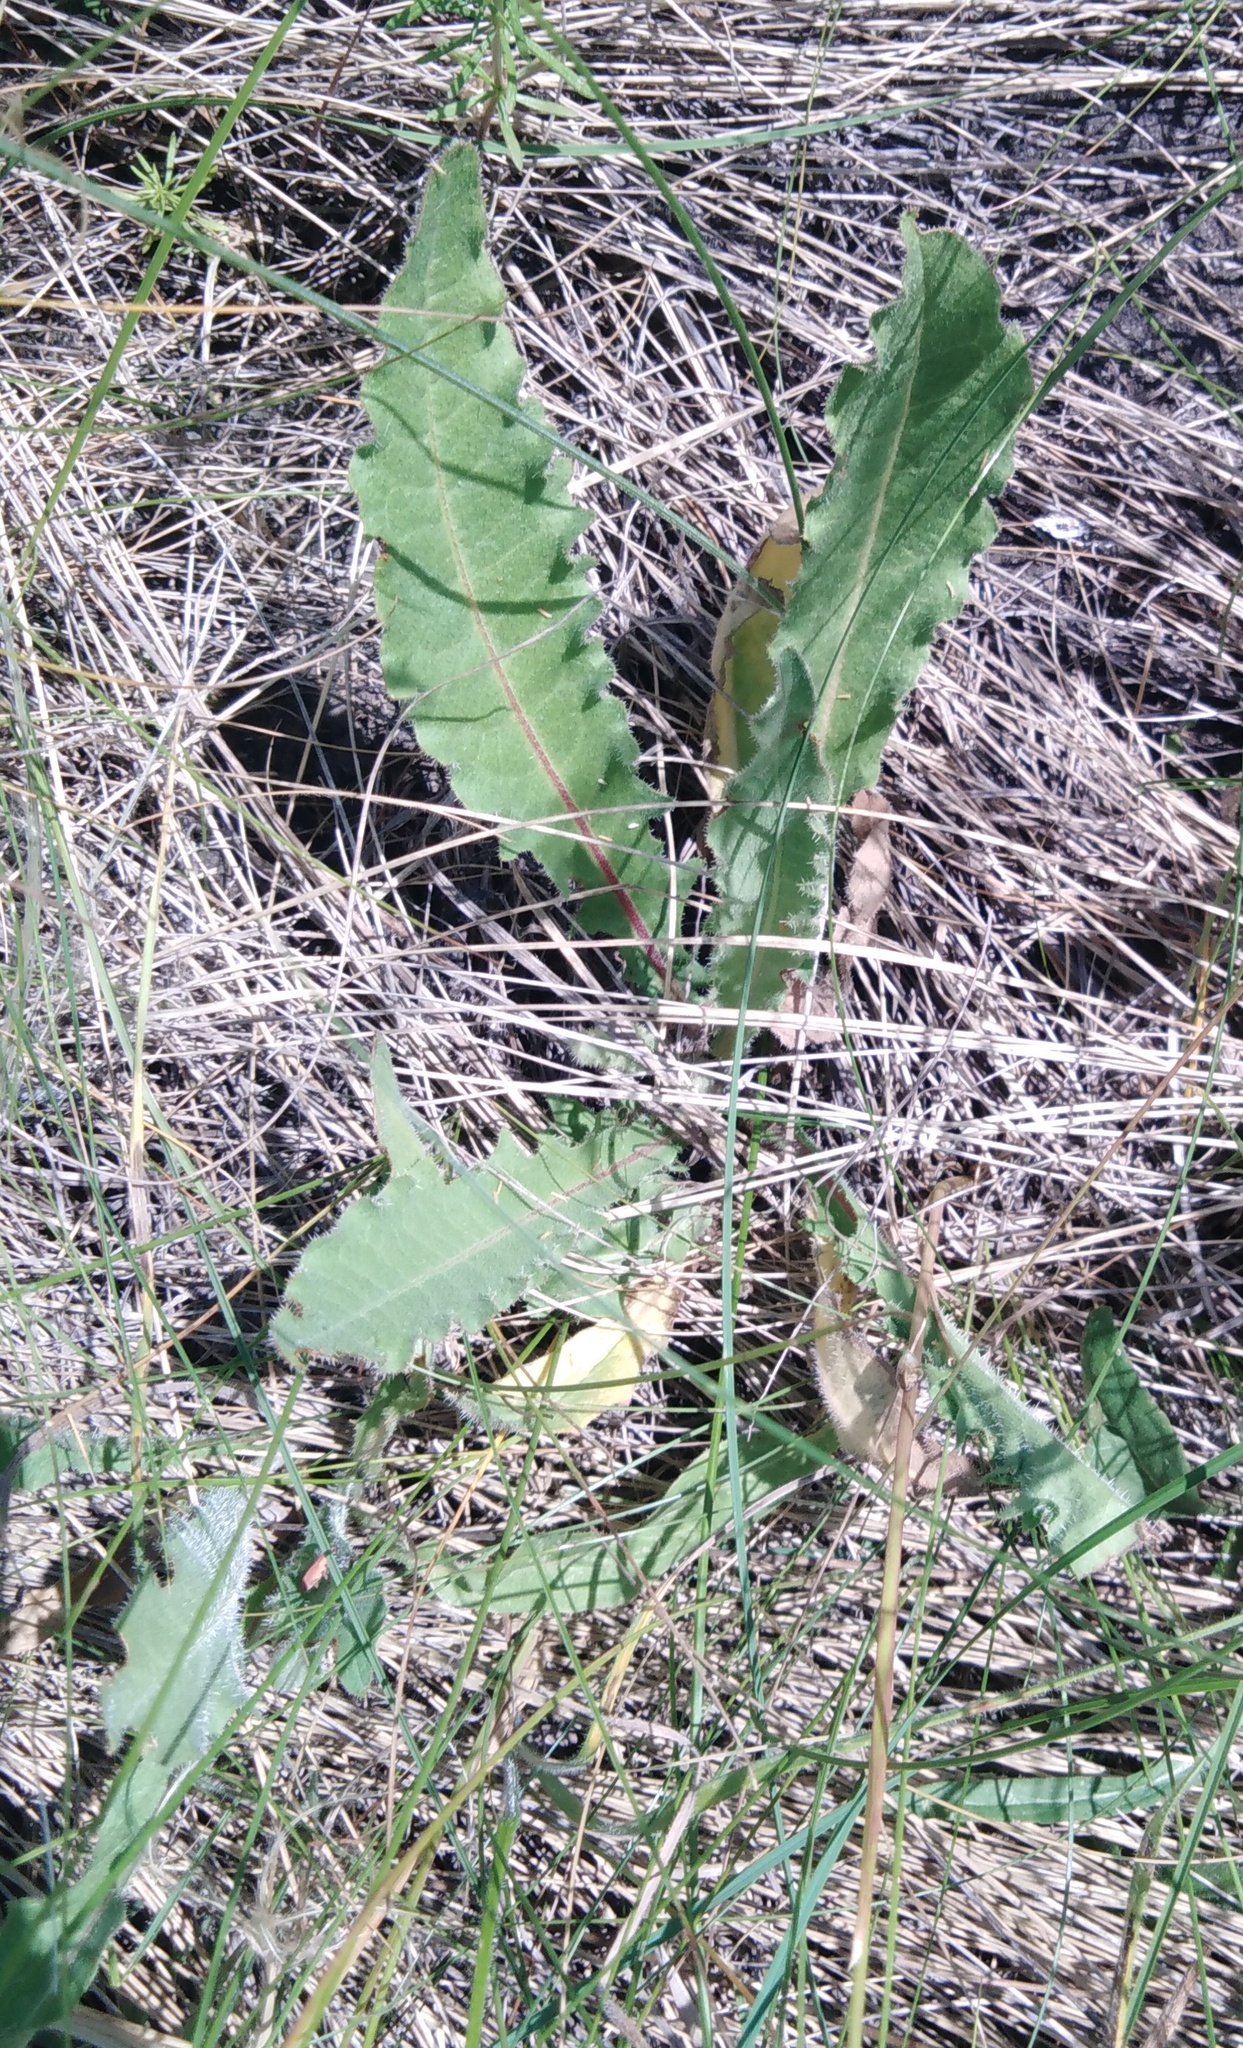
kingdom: Plantae
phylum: Tracheophyta
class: Magnoliopsida
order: Asterales
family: Asteraceae
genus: Picris
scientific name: Picris hieracioides
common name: Hawkweed oxtongue
